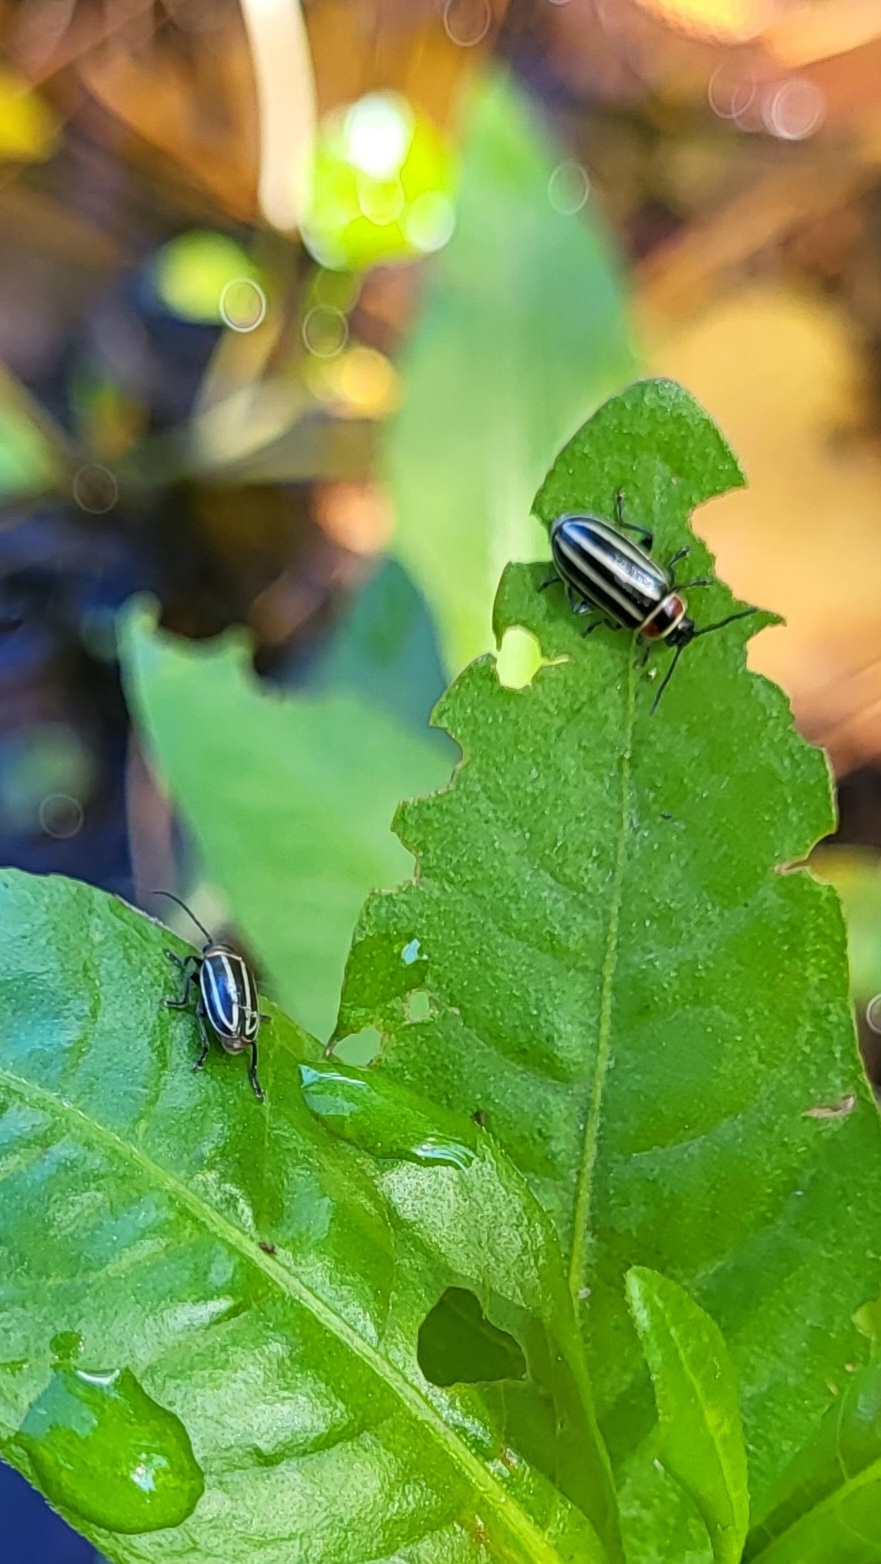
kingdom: Animalia
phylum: Arthropoda
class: Insecta
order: Coleoptera
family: Chrysomelidae
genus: Disonycha
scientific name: Disonycha pensylvanica
